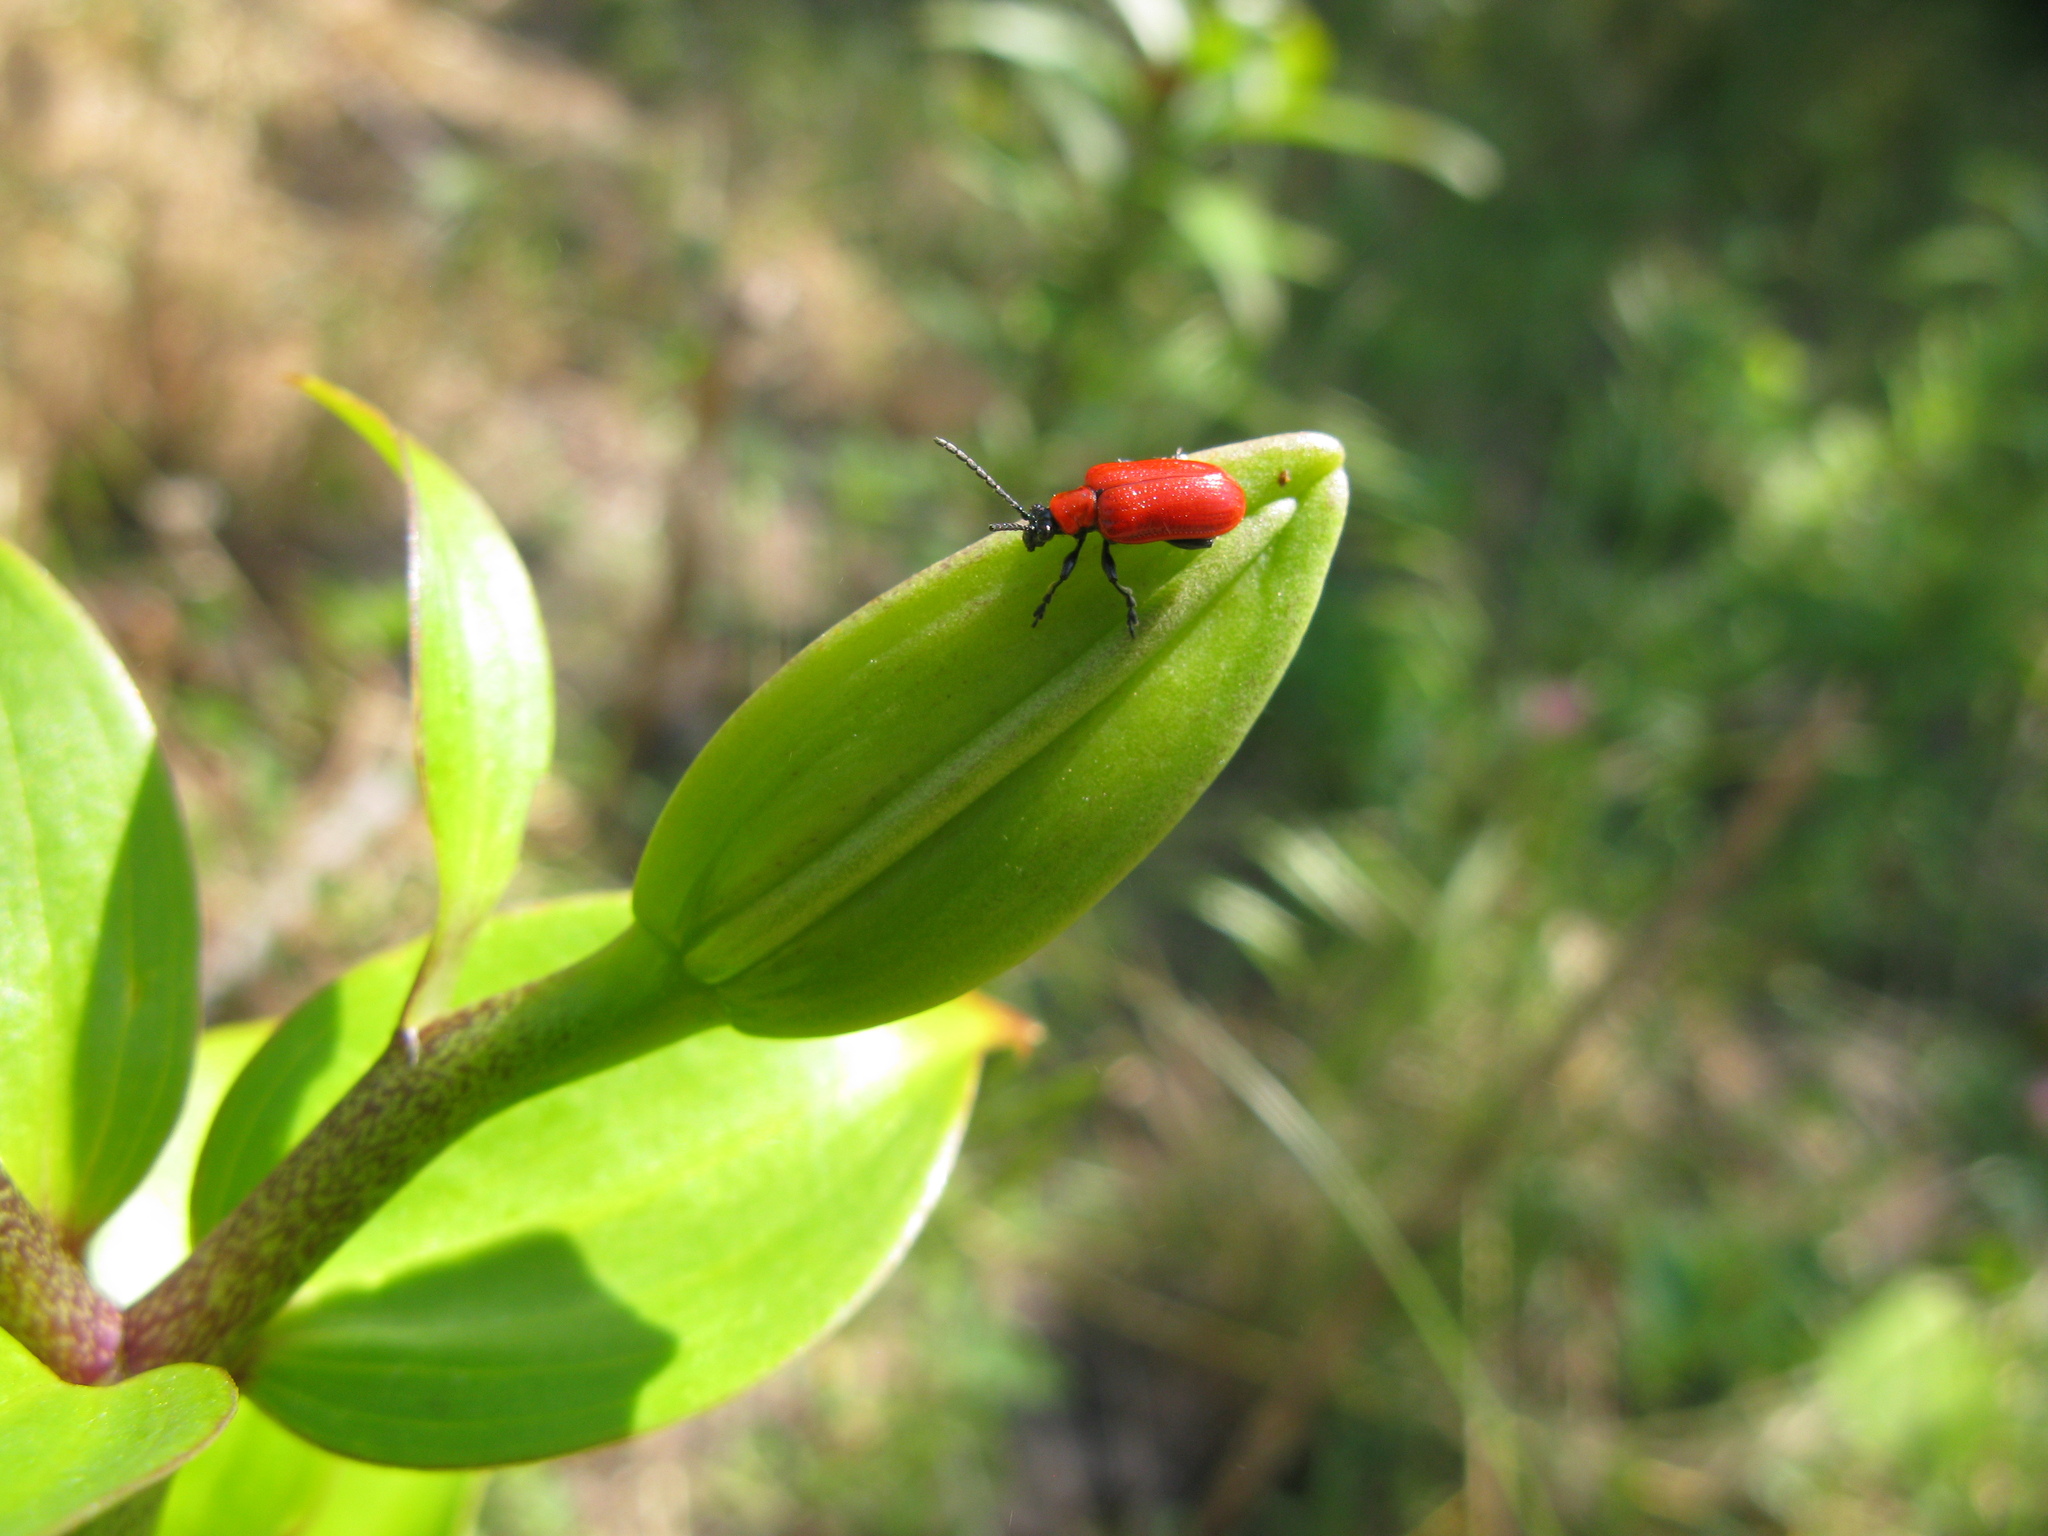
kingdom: Animalia
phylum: Arthropoda
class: Insecta
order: Coleoptera
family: Chrysomelidae
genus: Lilioceris
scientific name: Lilioceris lilii
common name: Lily beetle
